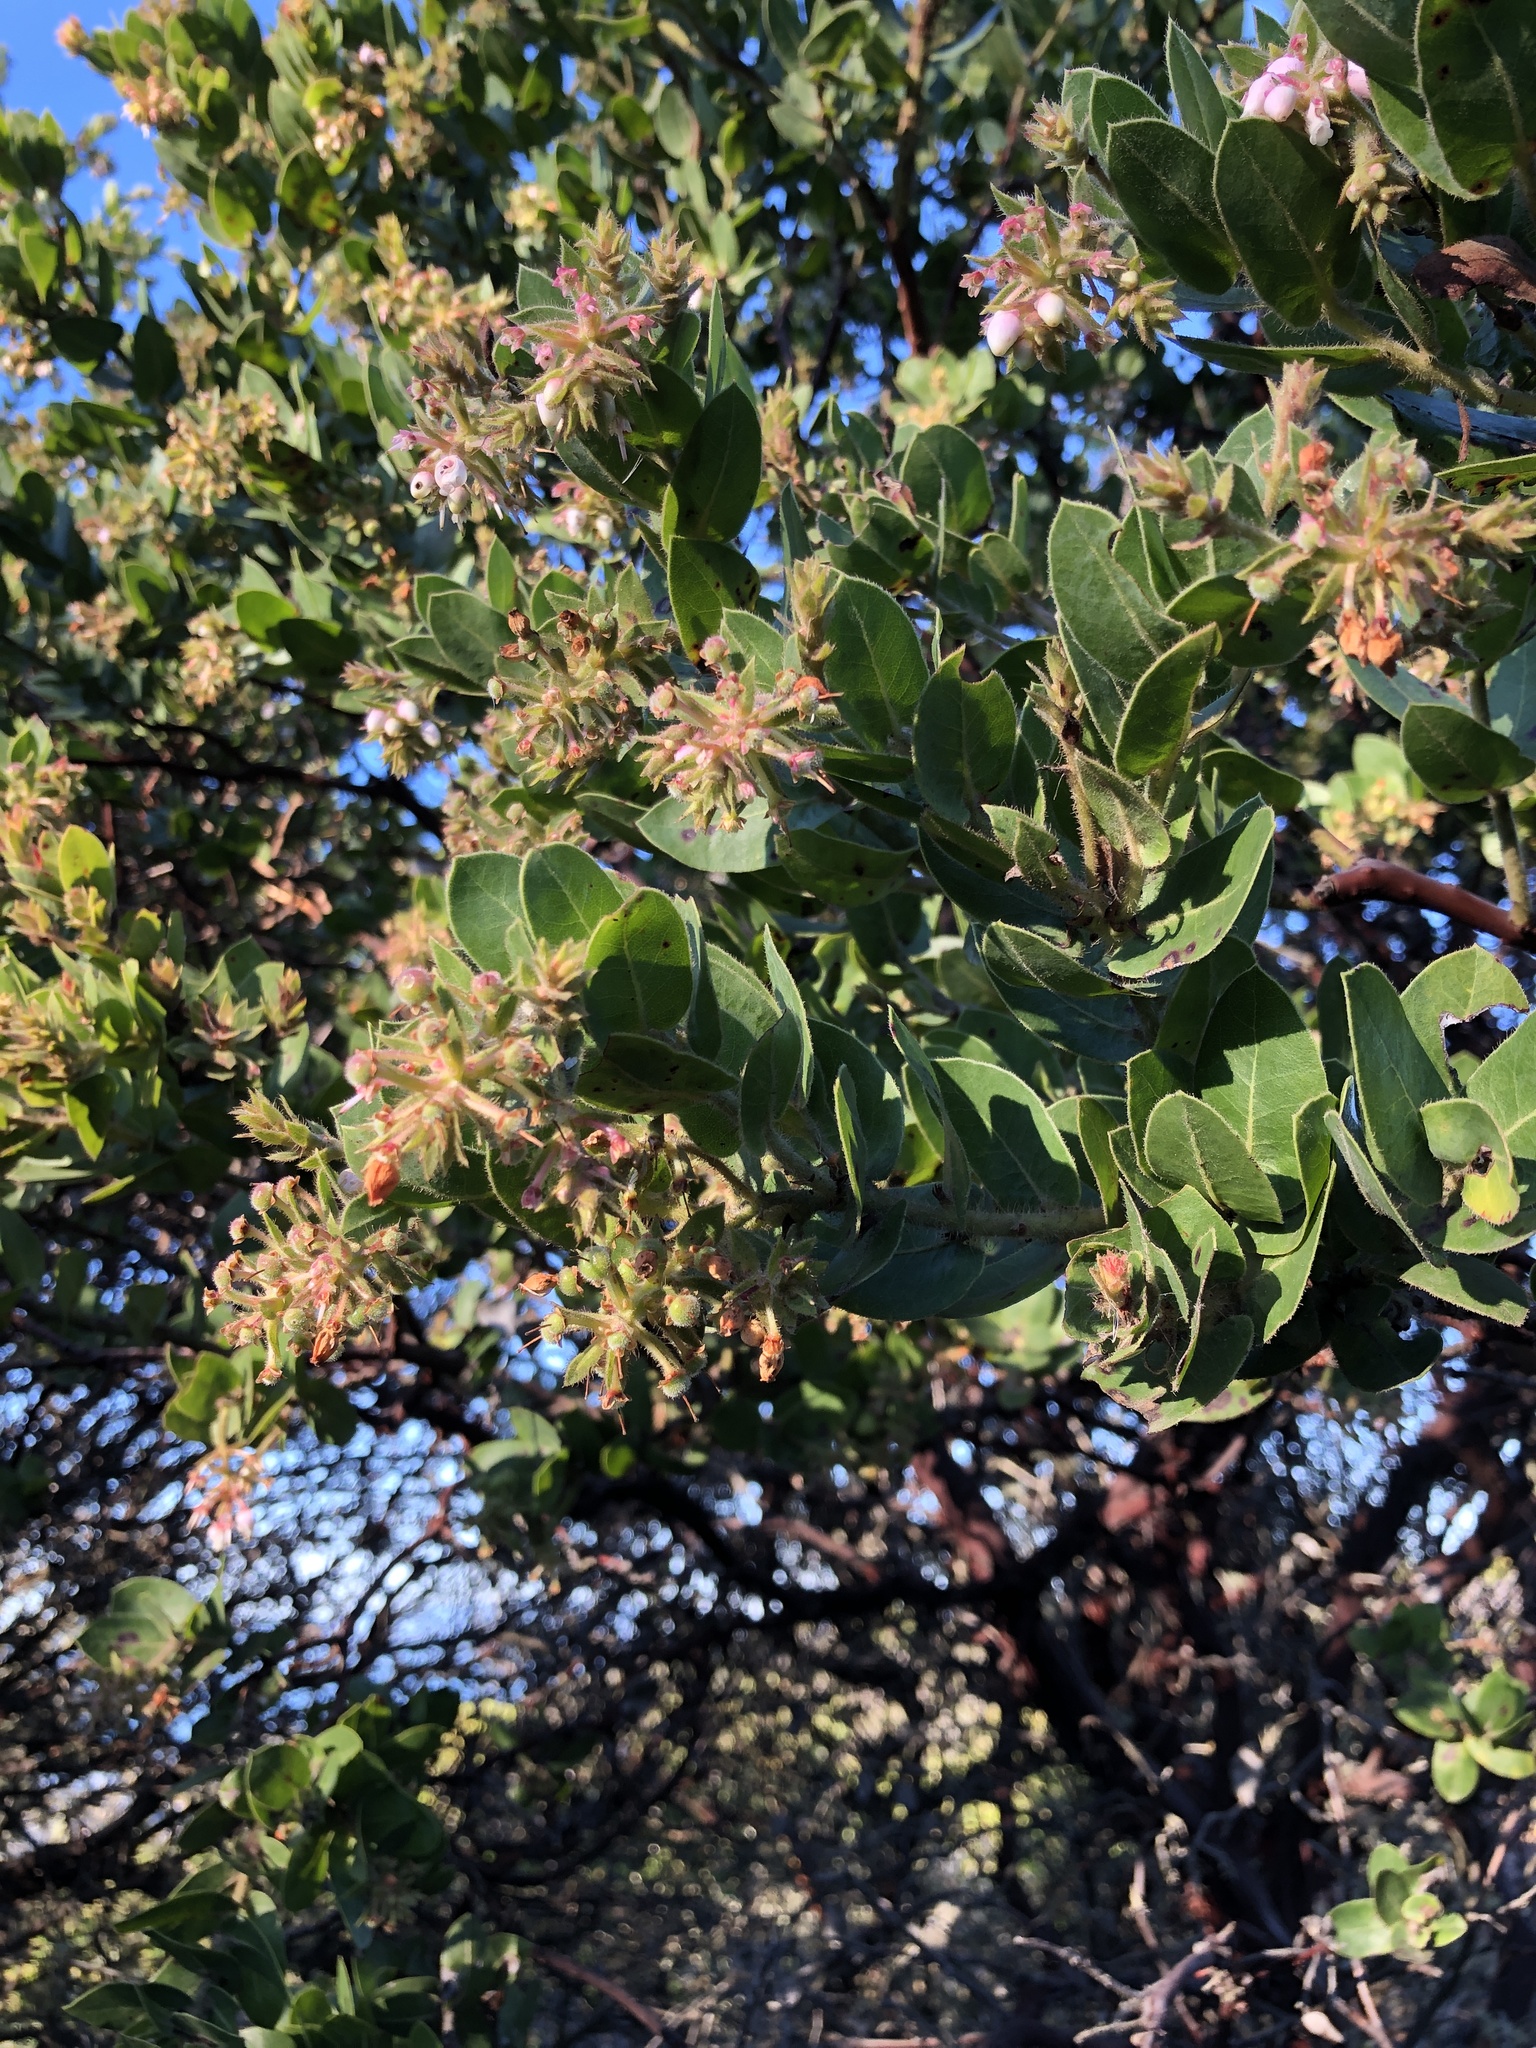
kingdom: Plantae
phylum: Tracheophyta
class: Magnoliopsida
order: Ericales
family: Ericaceae
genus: Arctostaphylos
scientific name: Arctostaphylos montaraensis
